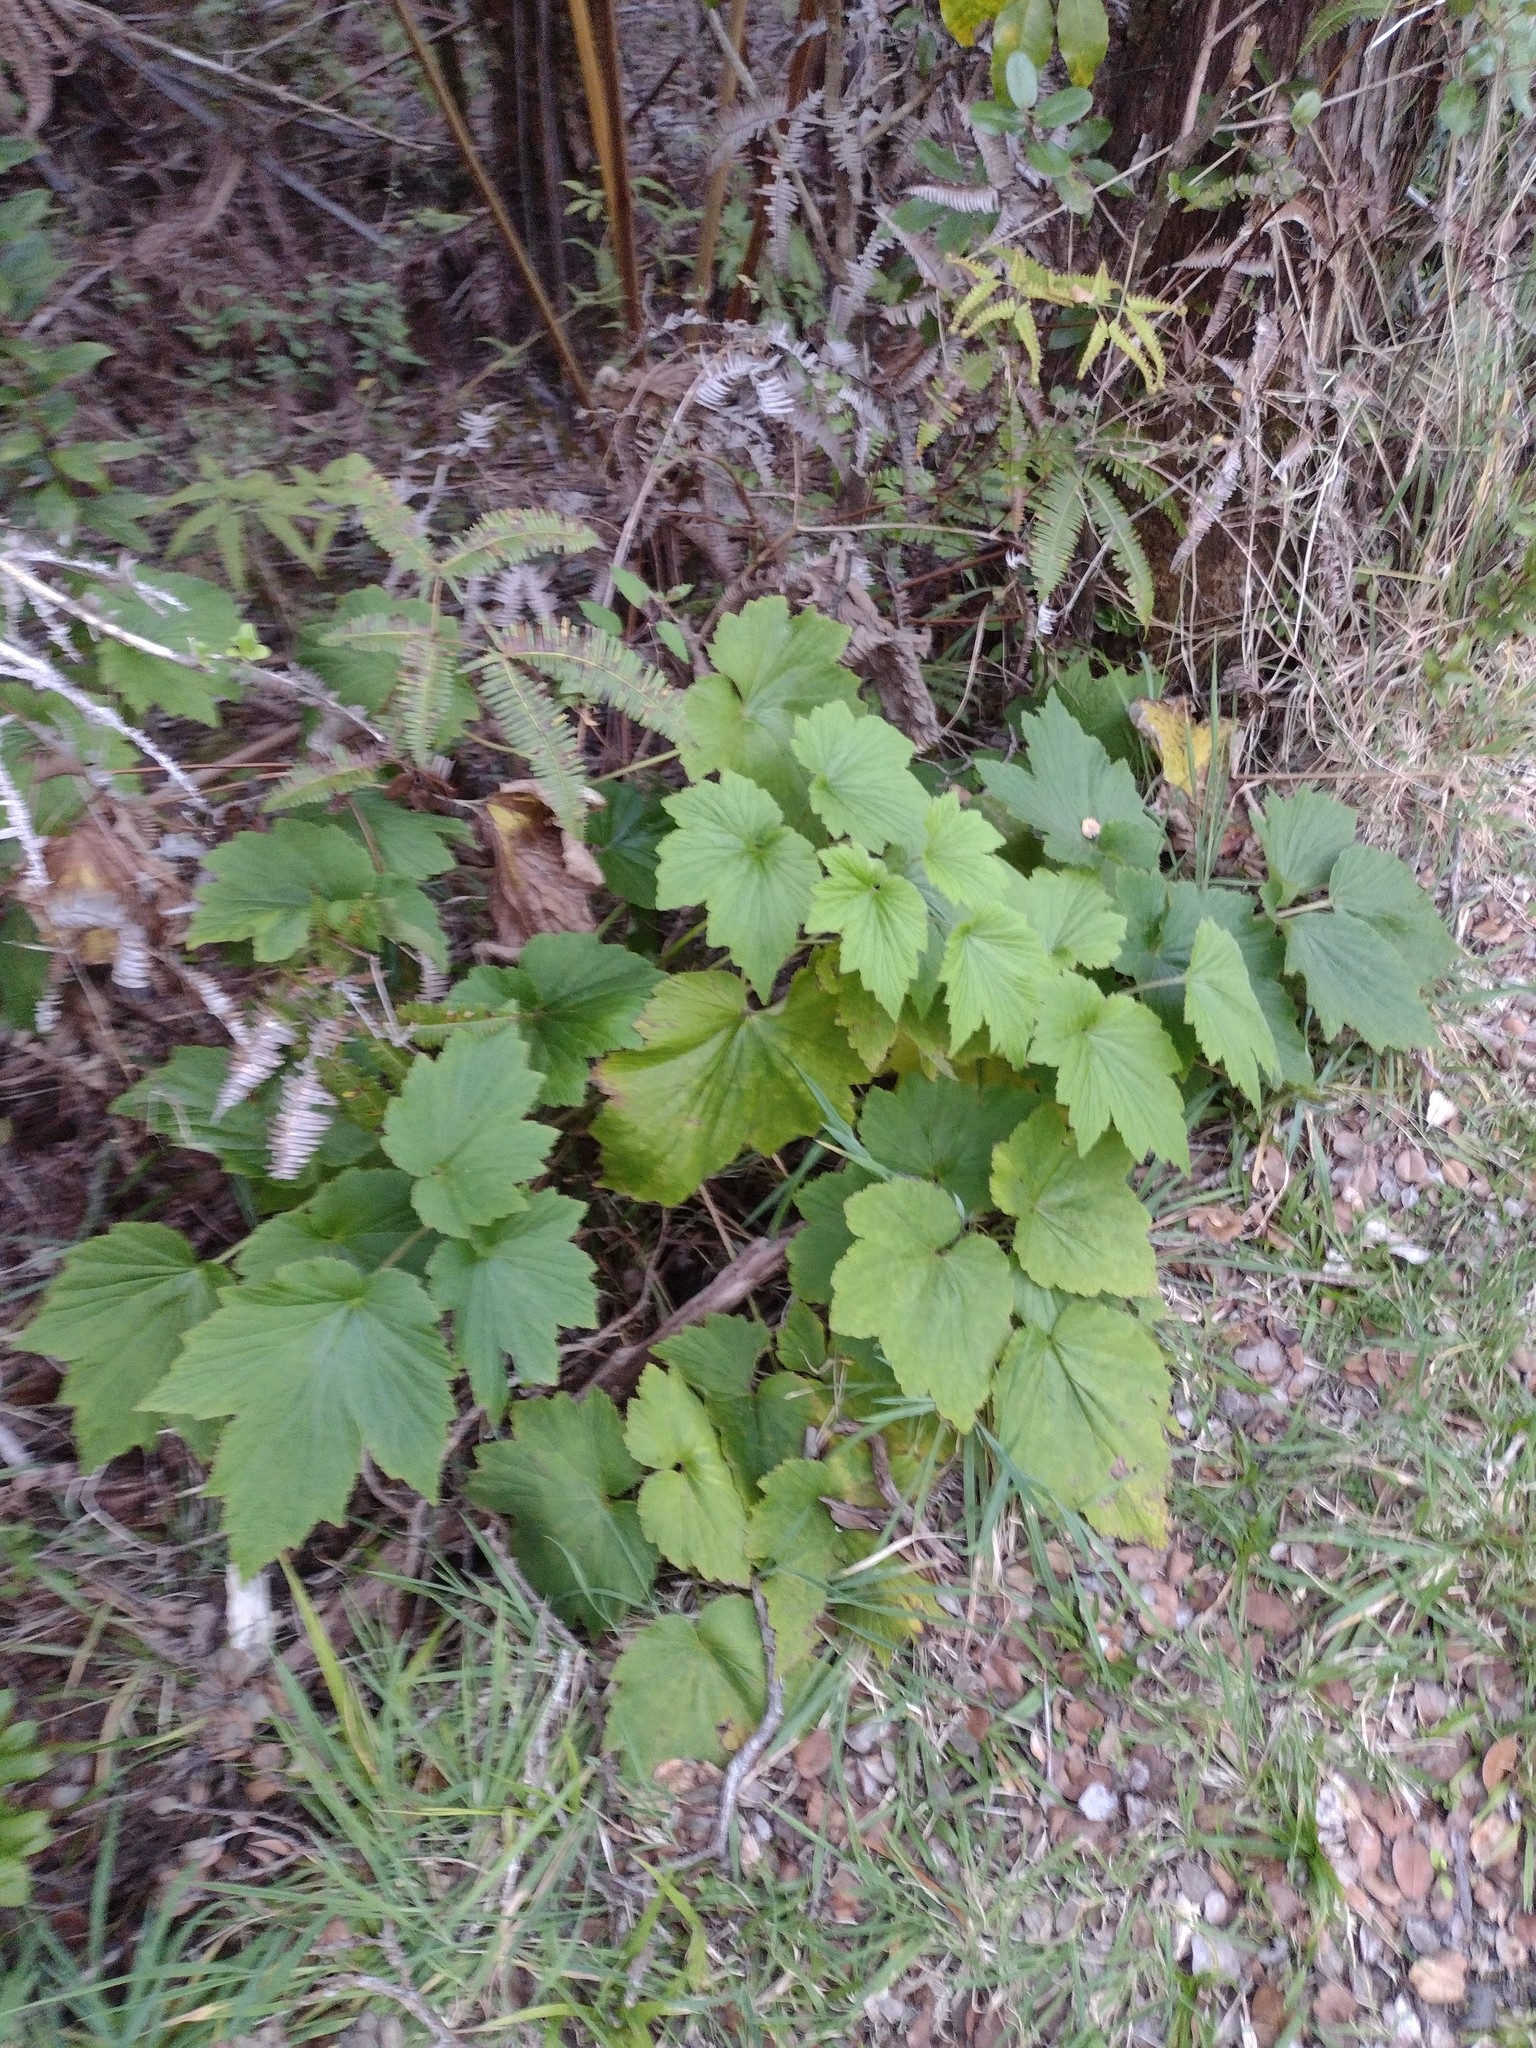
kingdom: Plantae
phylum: Tracheophyta
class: Magnoliopsida
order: Ranunculales
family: Ranunculaceae
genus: Eriocapitella
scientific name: Eriocapitella japonica
